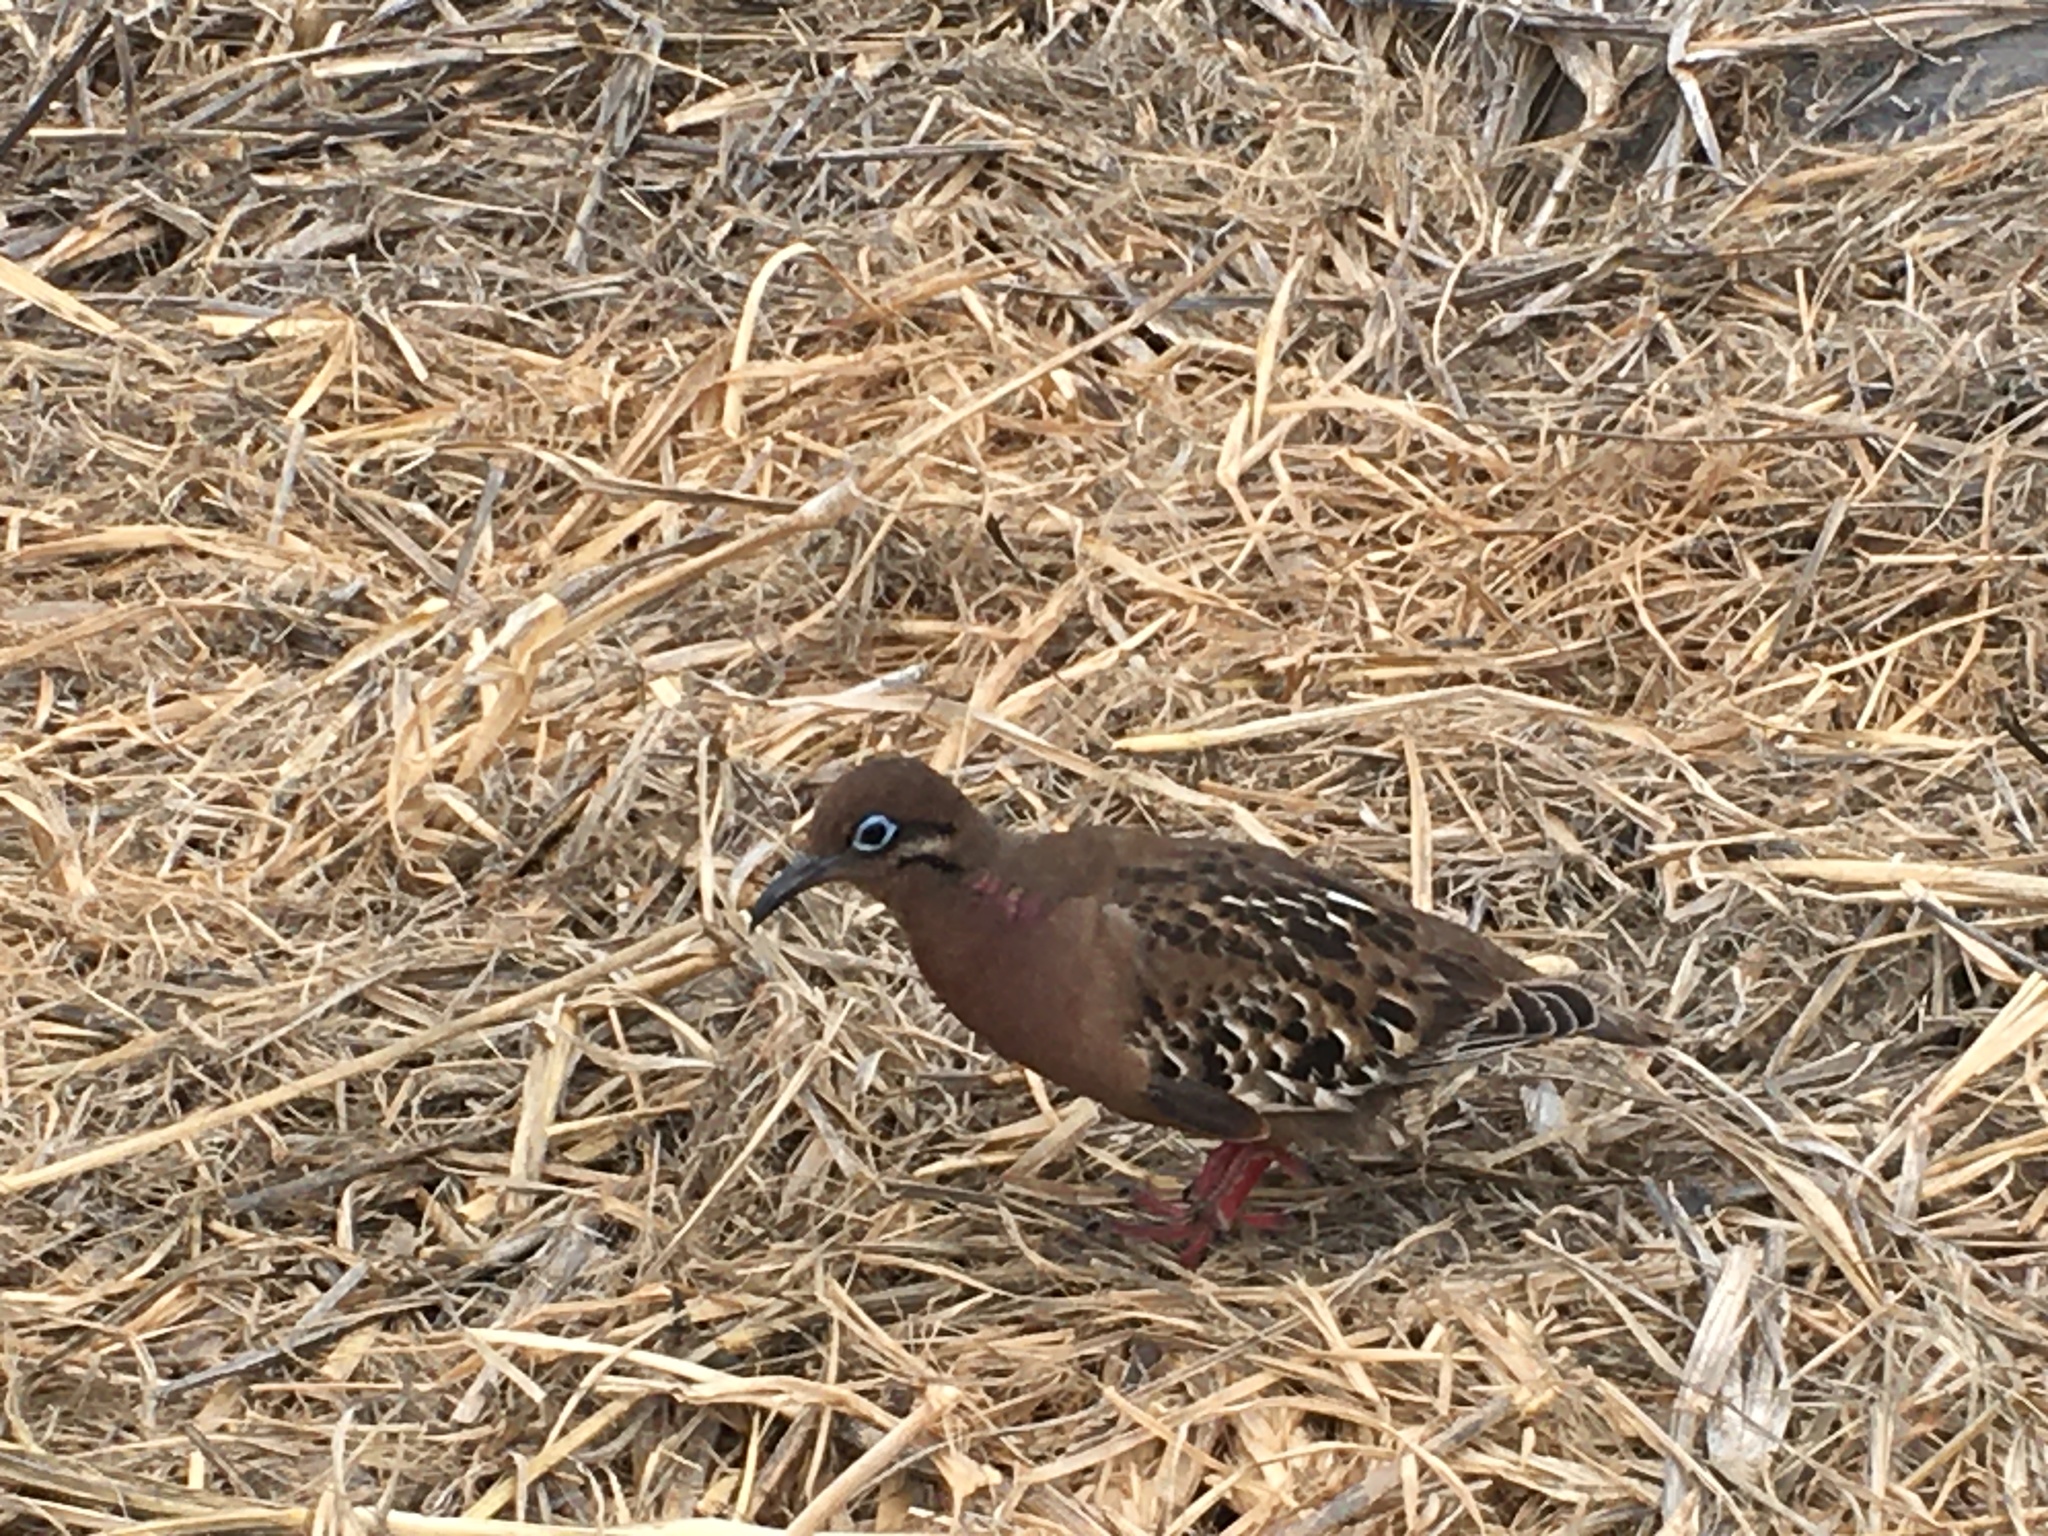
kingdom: Animalia
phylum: Chordata
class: Aves
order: Columbiformes
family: Columbidae
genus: Zenaida
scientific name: Zenaida galapagoensis
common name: Galapagos dove
